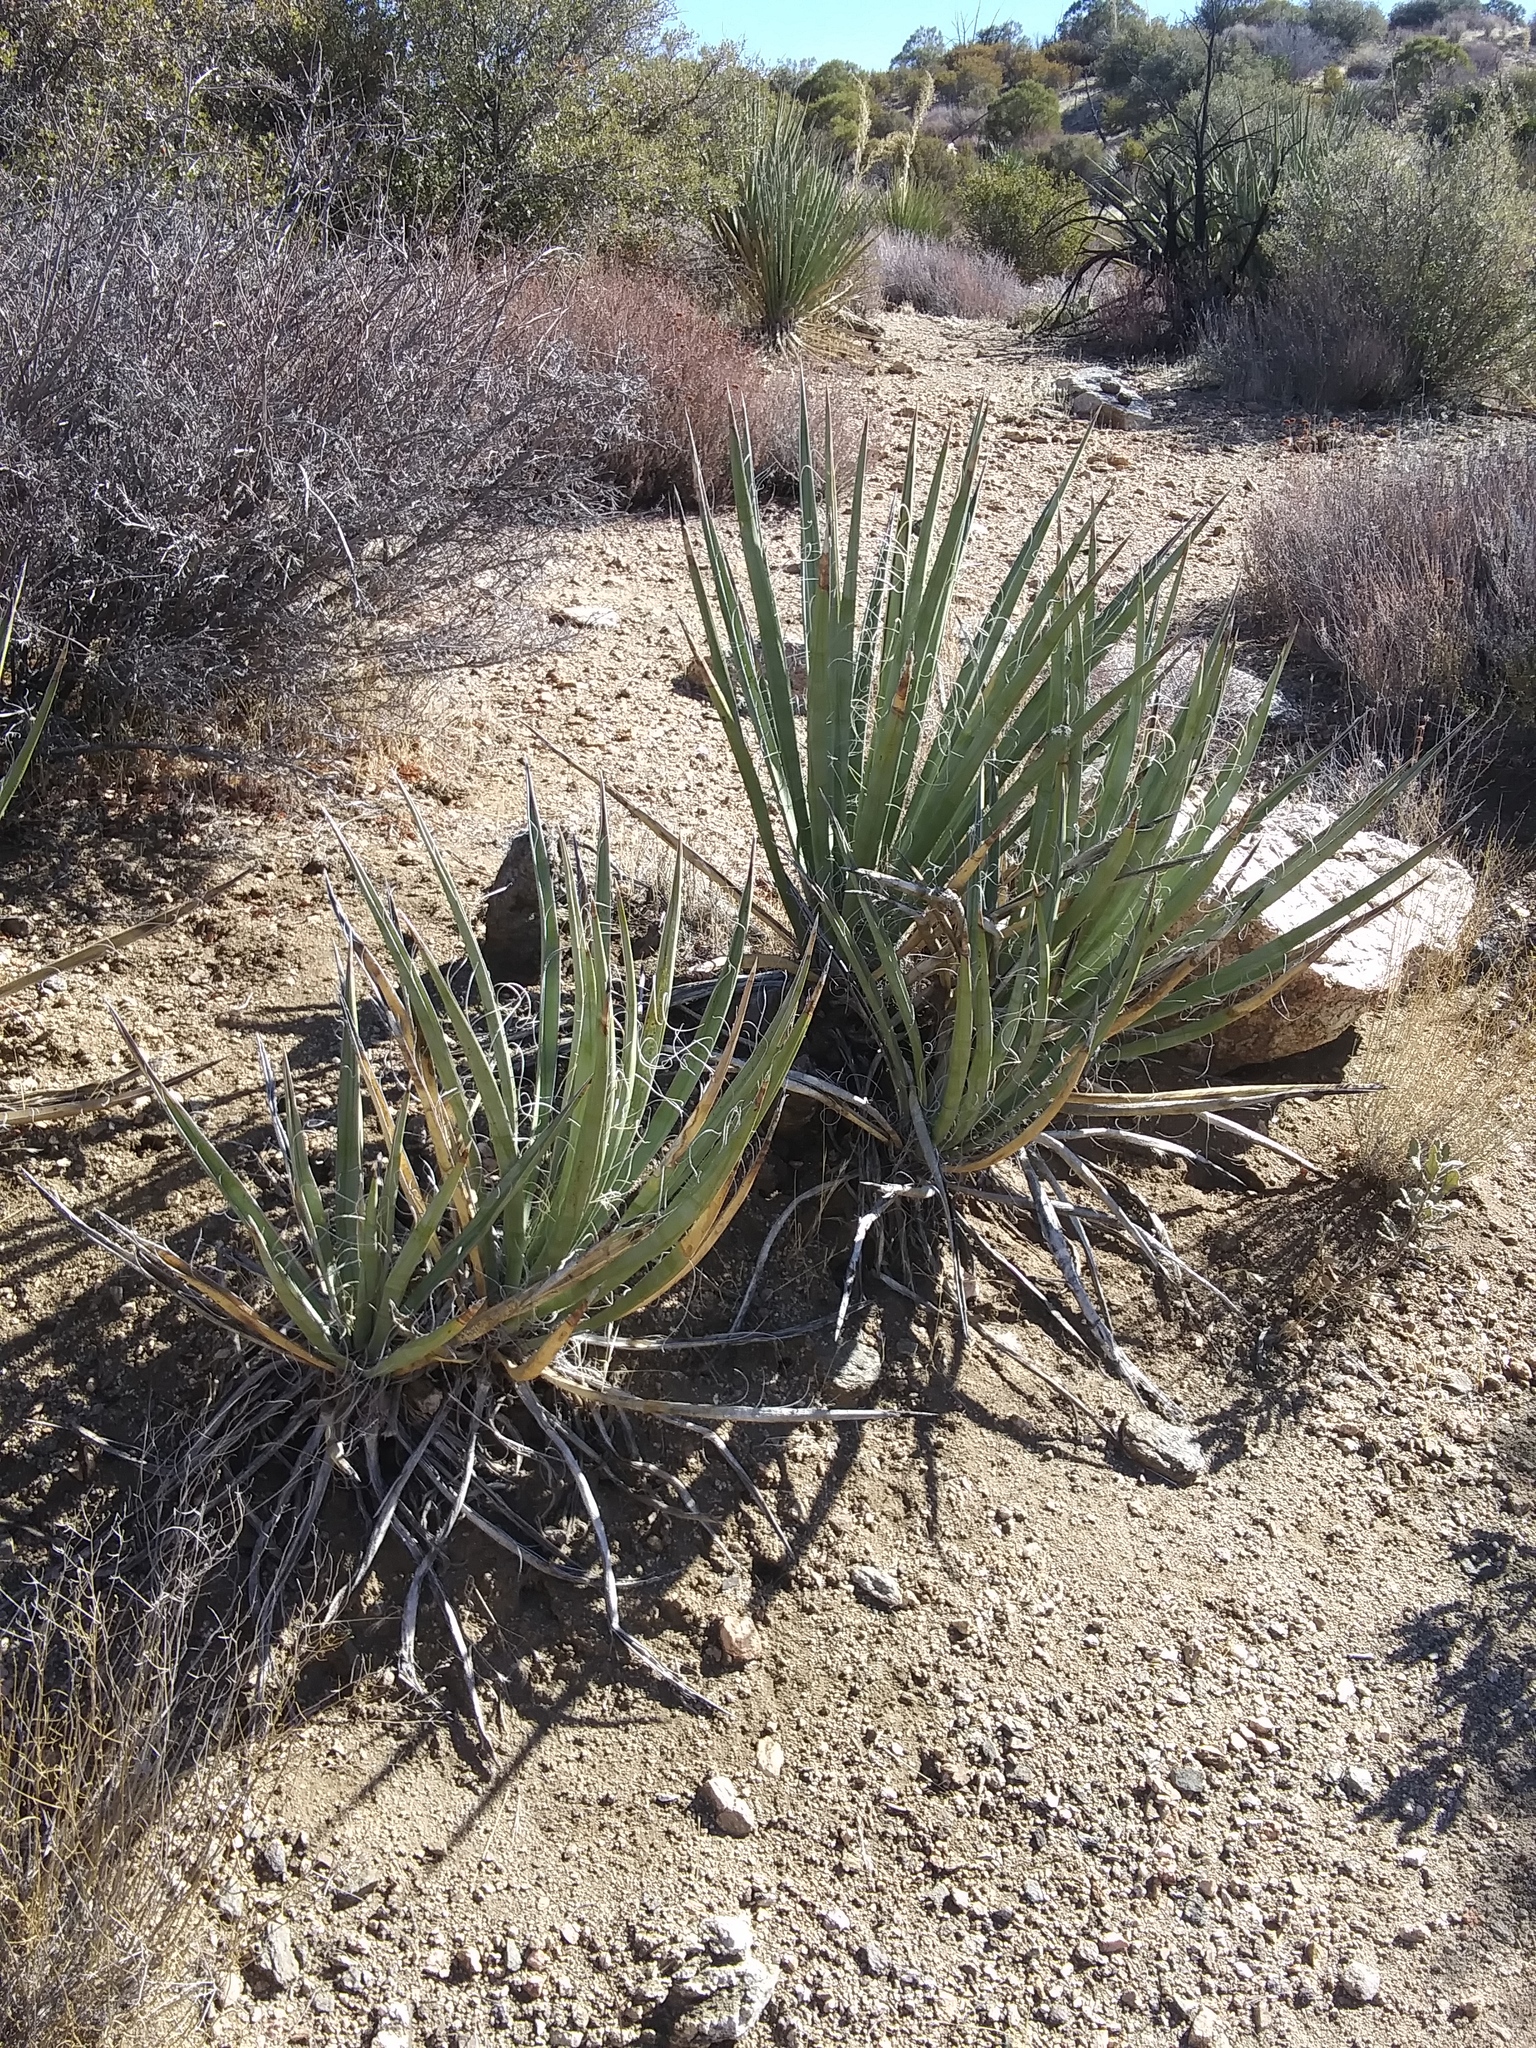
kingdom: Plantae
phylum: Tracheophyta
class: Liliopsida
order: Asparagales
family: Asparagaceae
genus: Yucca
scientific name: Yucca schidigera
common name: Mojave yucca
